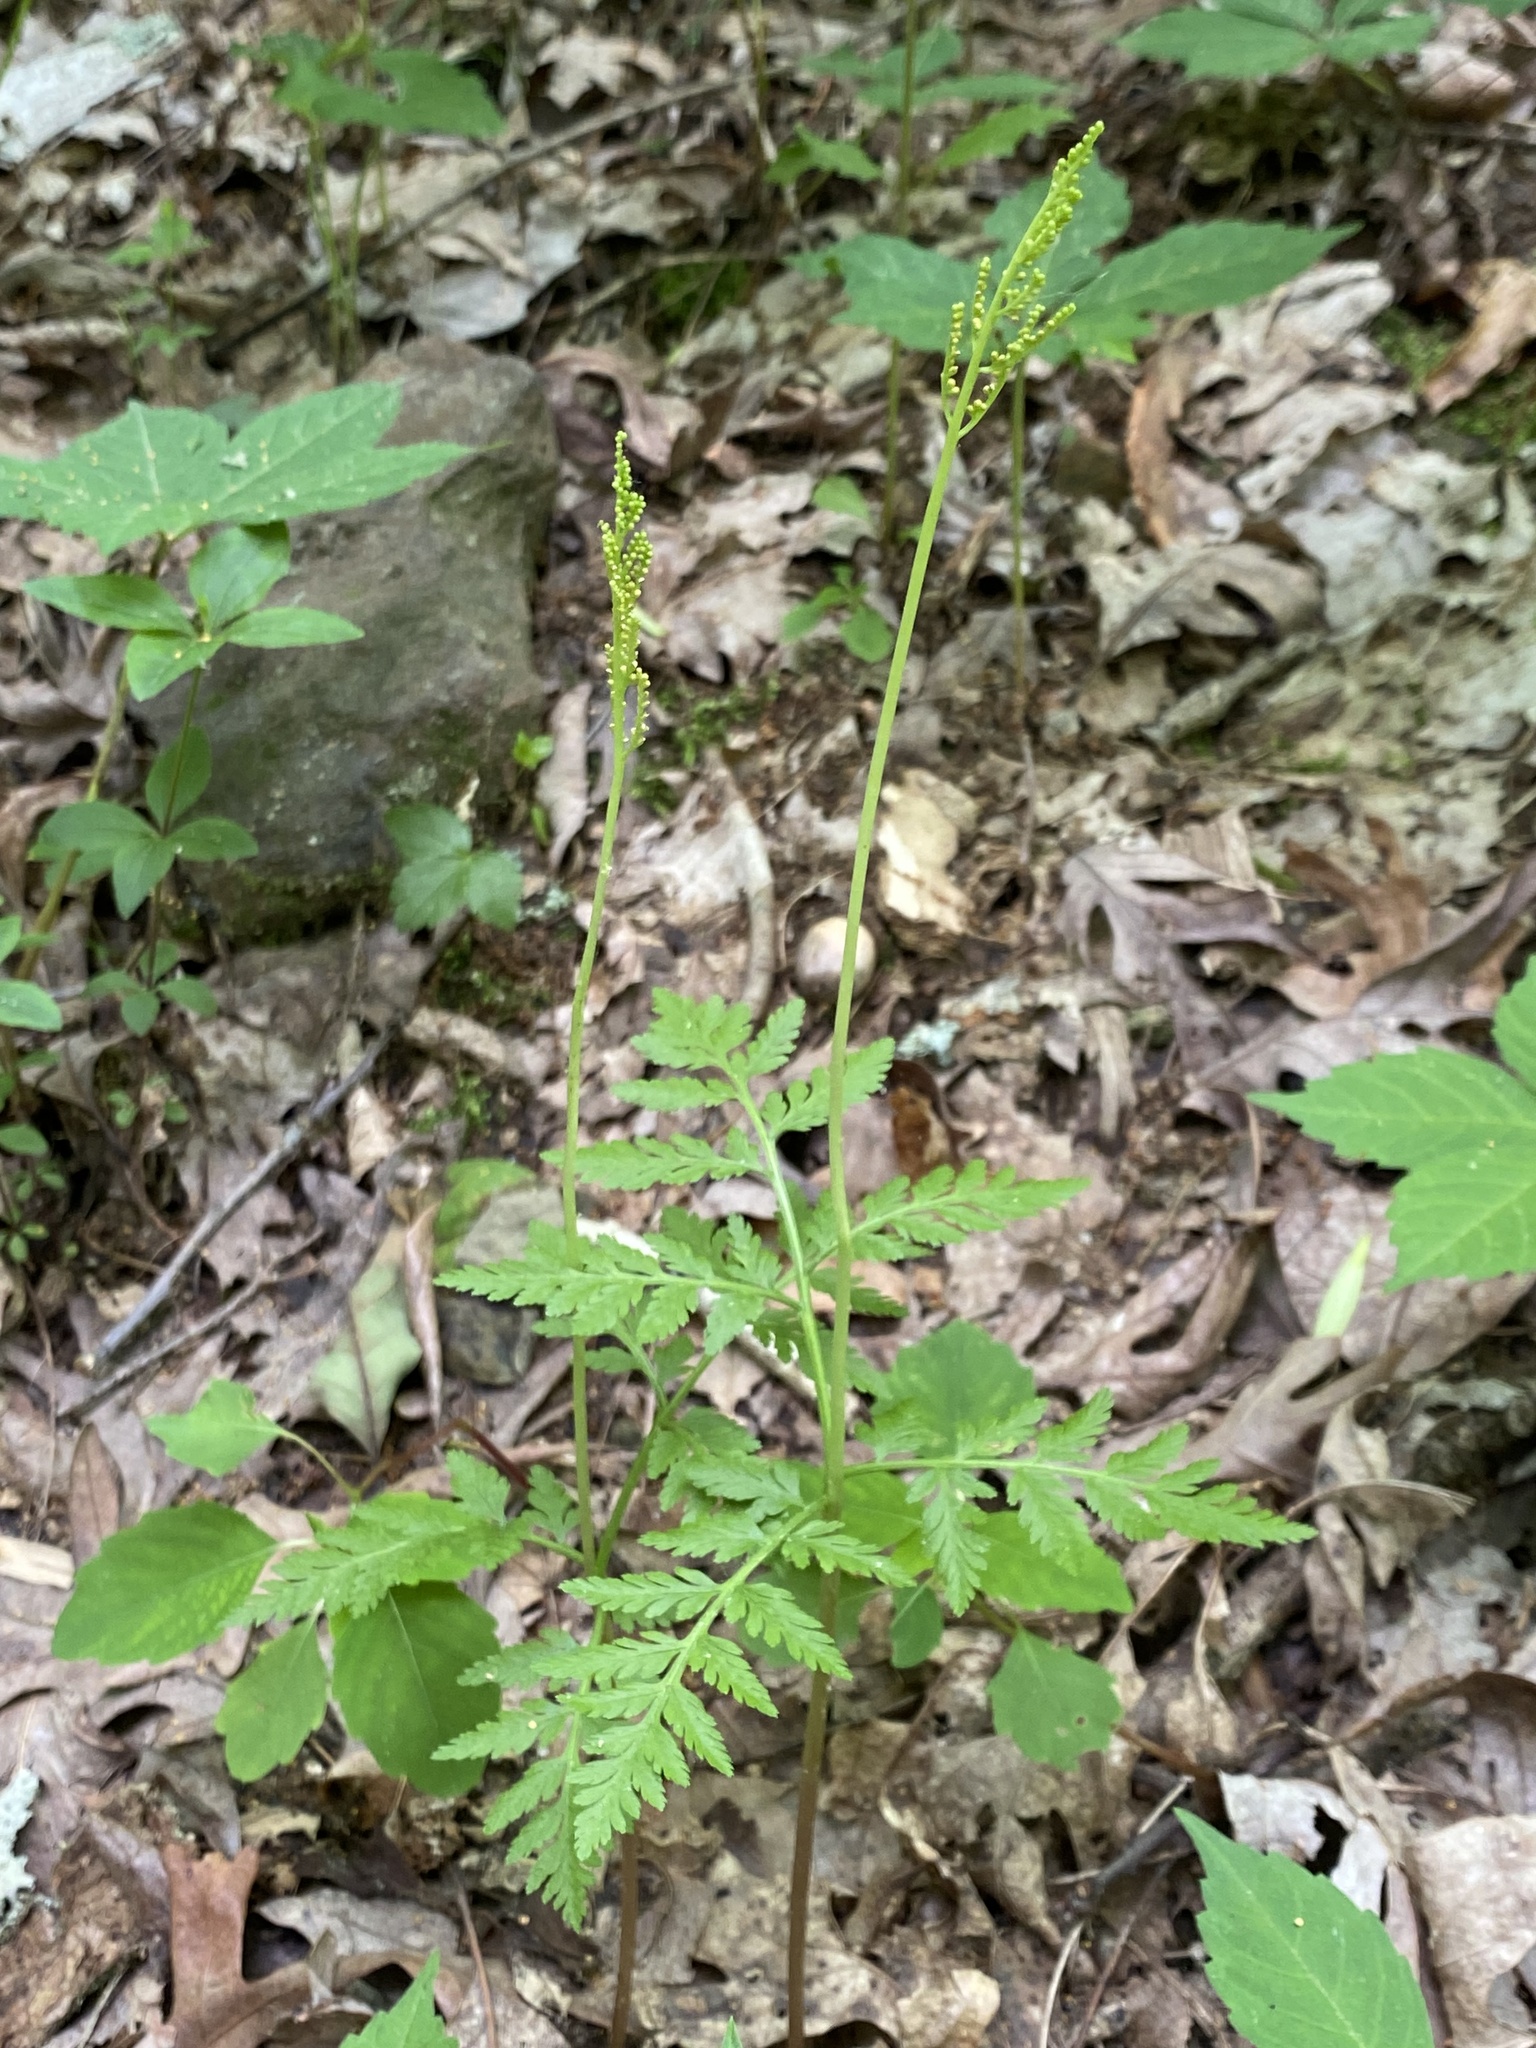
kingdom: Plantae
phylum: Tracheophyta
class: Polypodiopsida
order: Ophioglossales
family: Ophioglossaceae
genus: Botrypus
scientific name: Botrypus virginianus
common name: Common grapefern
